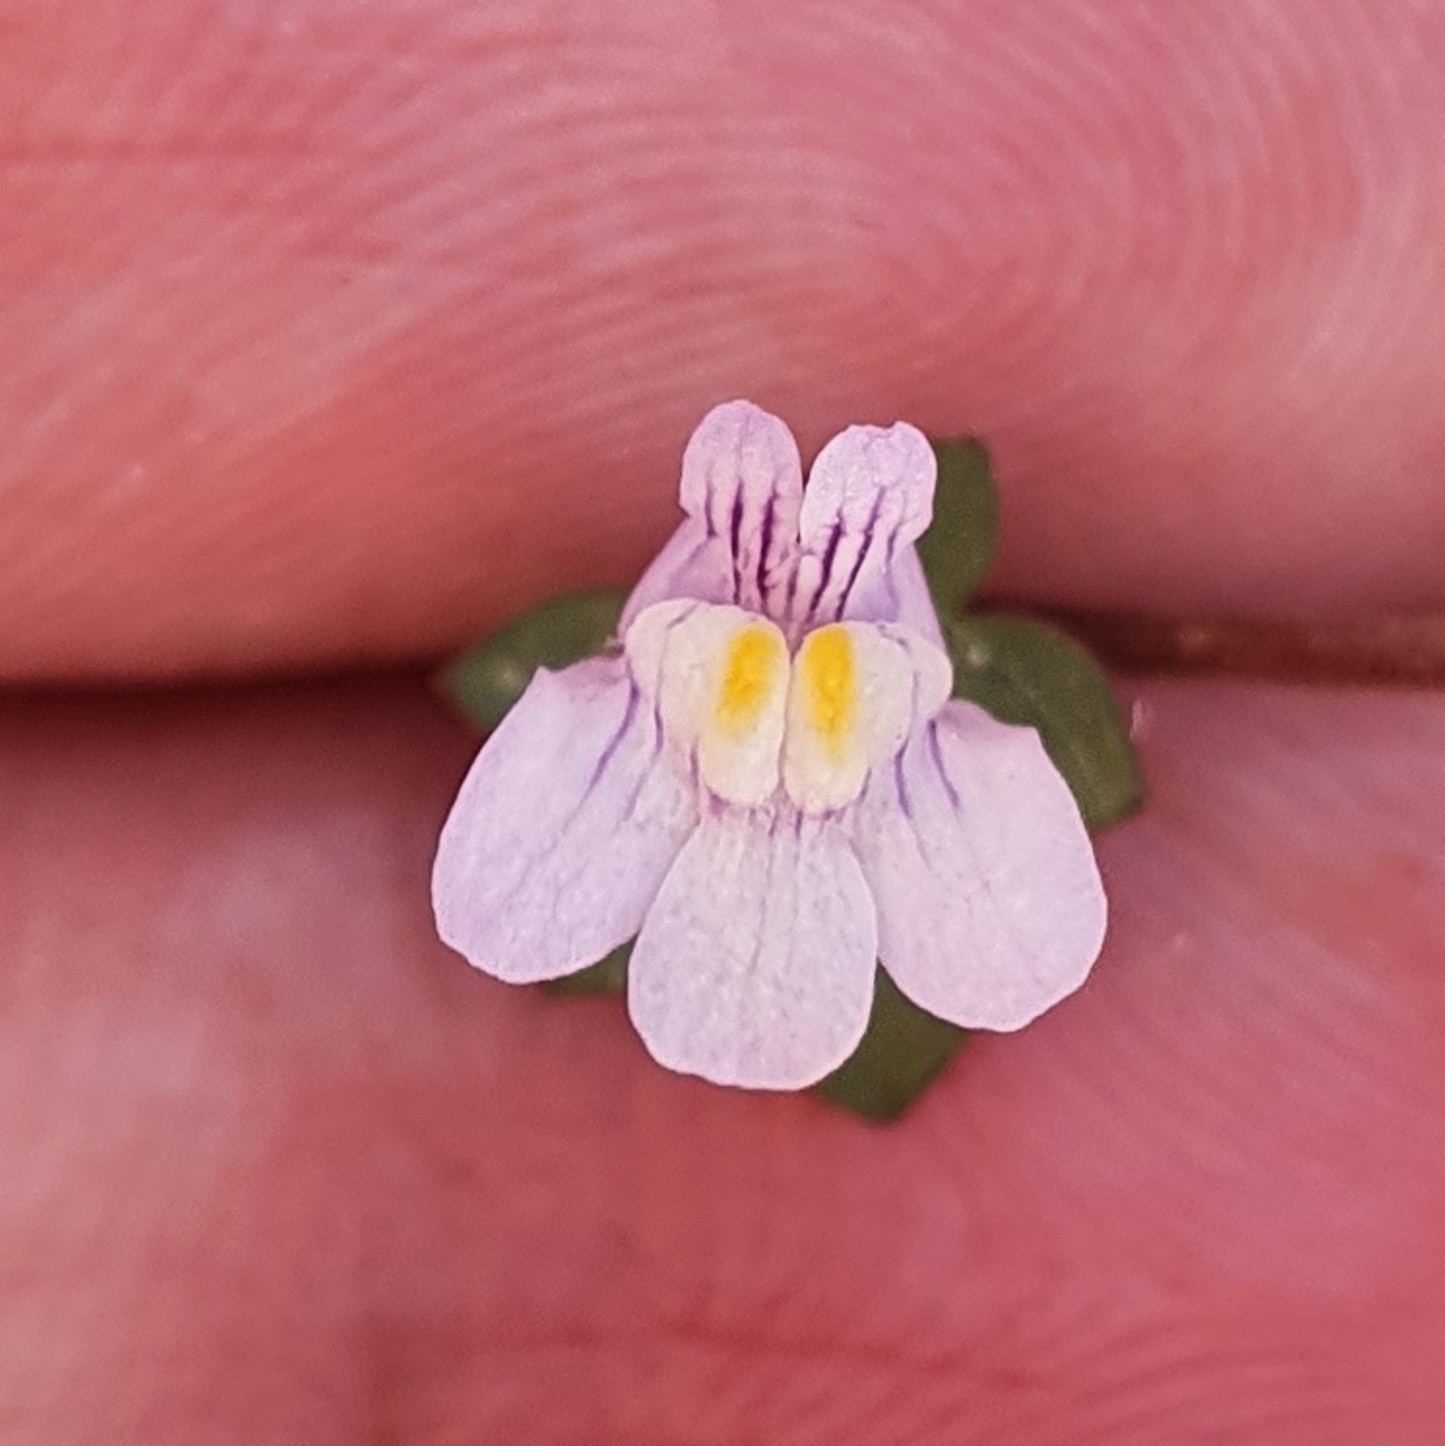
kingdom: Plantae
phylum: Tracheophyta
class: Magnoliopsida
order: Lamiales
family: Plantaginaceae
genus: Cymbalaria
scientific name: Cymbalaria muralis
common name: Ivy-leaved toadflax
